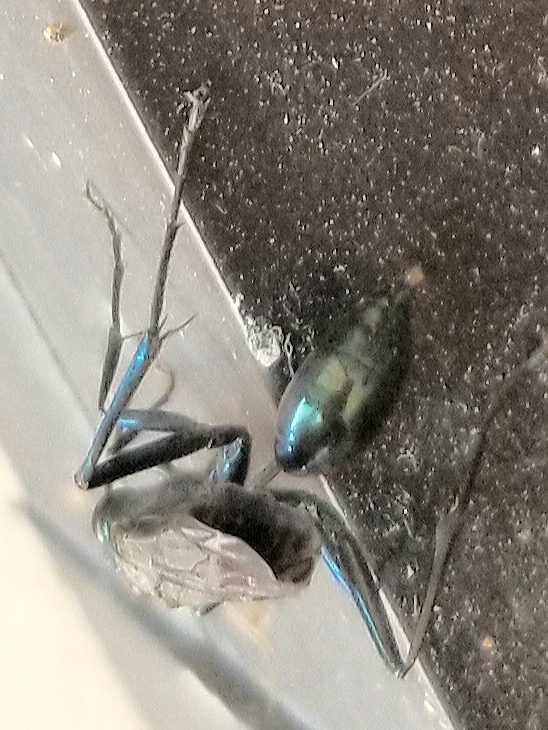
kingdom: Animalia
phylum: Arthropoda
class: Insecta
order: Hymenoptera
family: Sphecidae
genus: Chalybion
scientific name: Chalybion californicum
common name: Mud dauber
